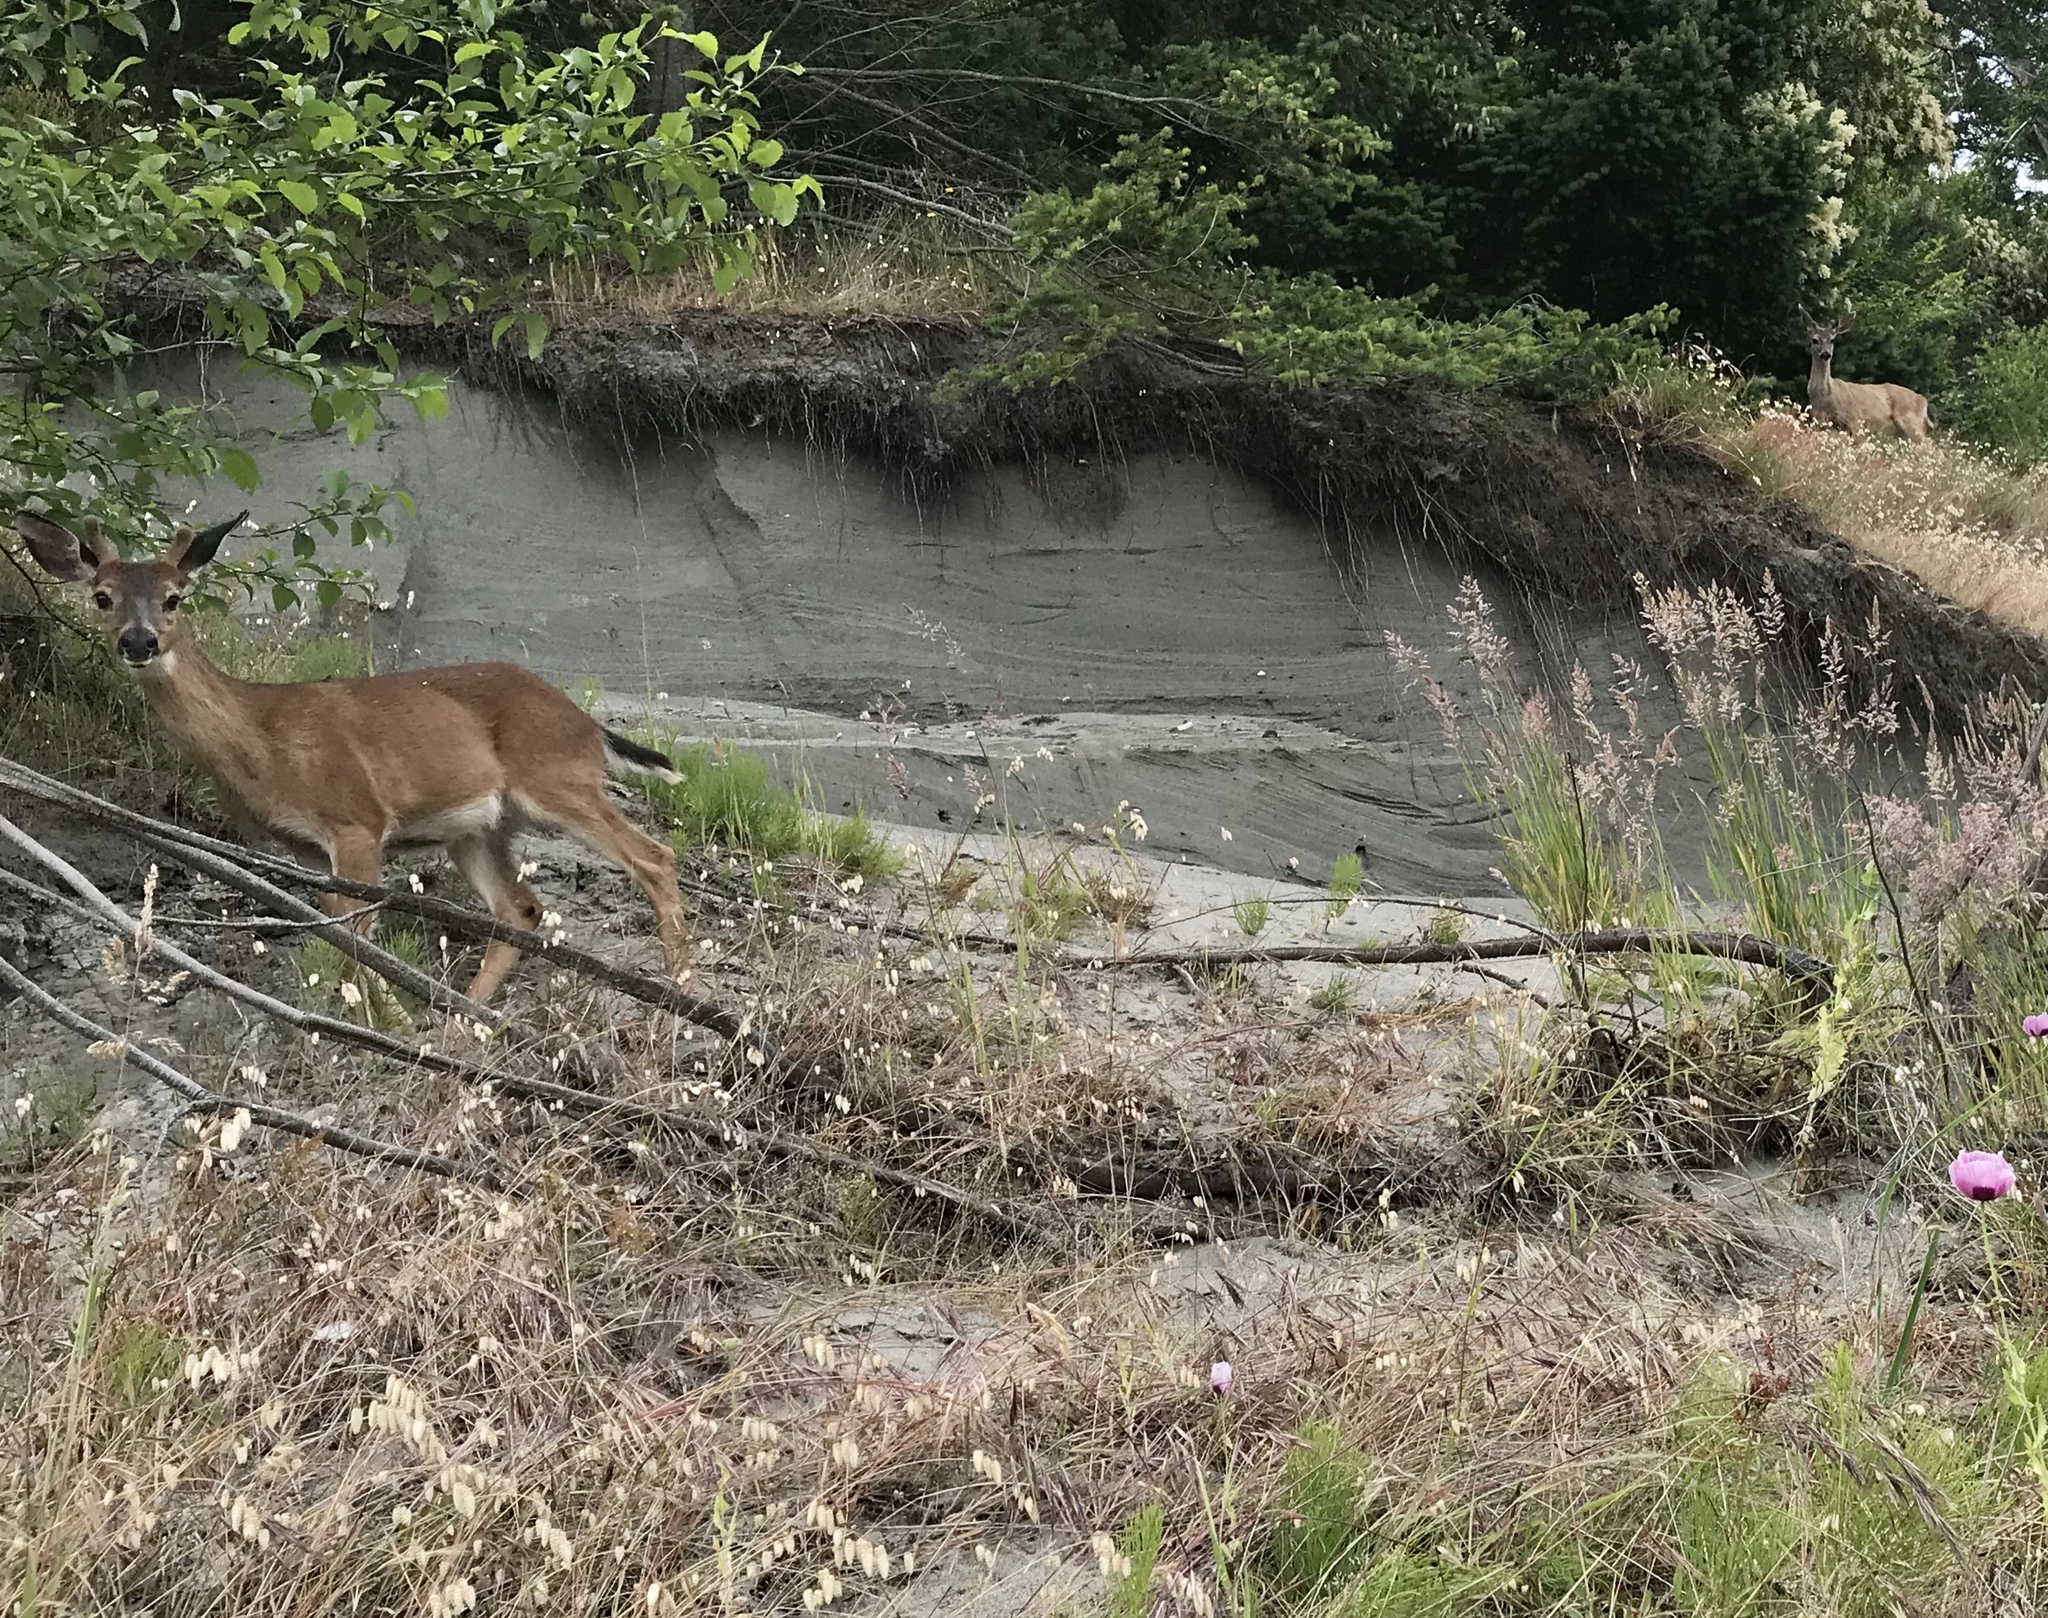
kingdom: Animalia
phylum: Chordata
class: Mammalia
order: Artiodactyla
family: Cervidae
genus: Odocoileus
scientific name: Odocoileus hemionus
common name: Mule deer
